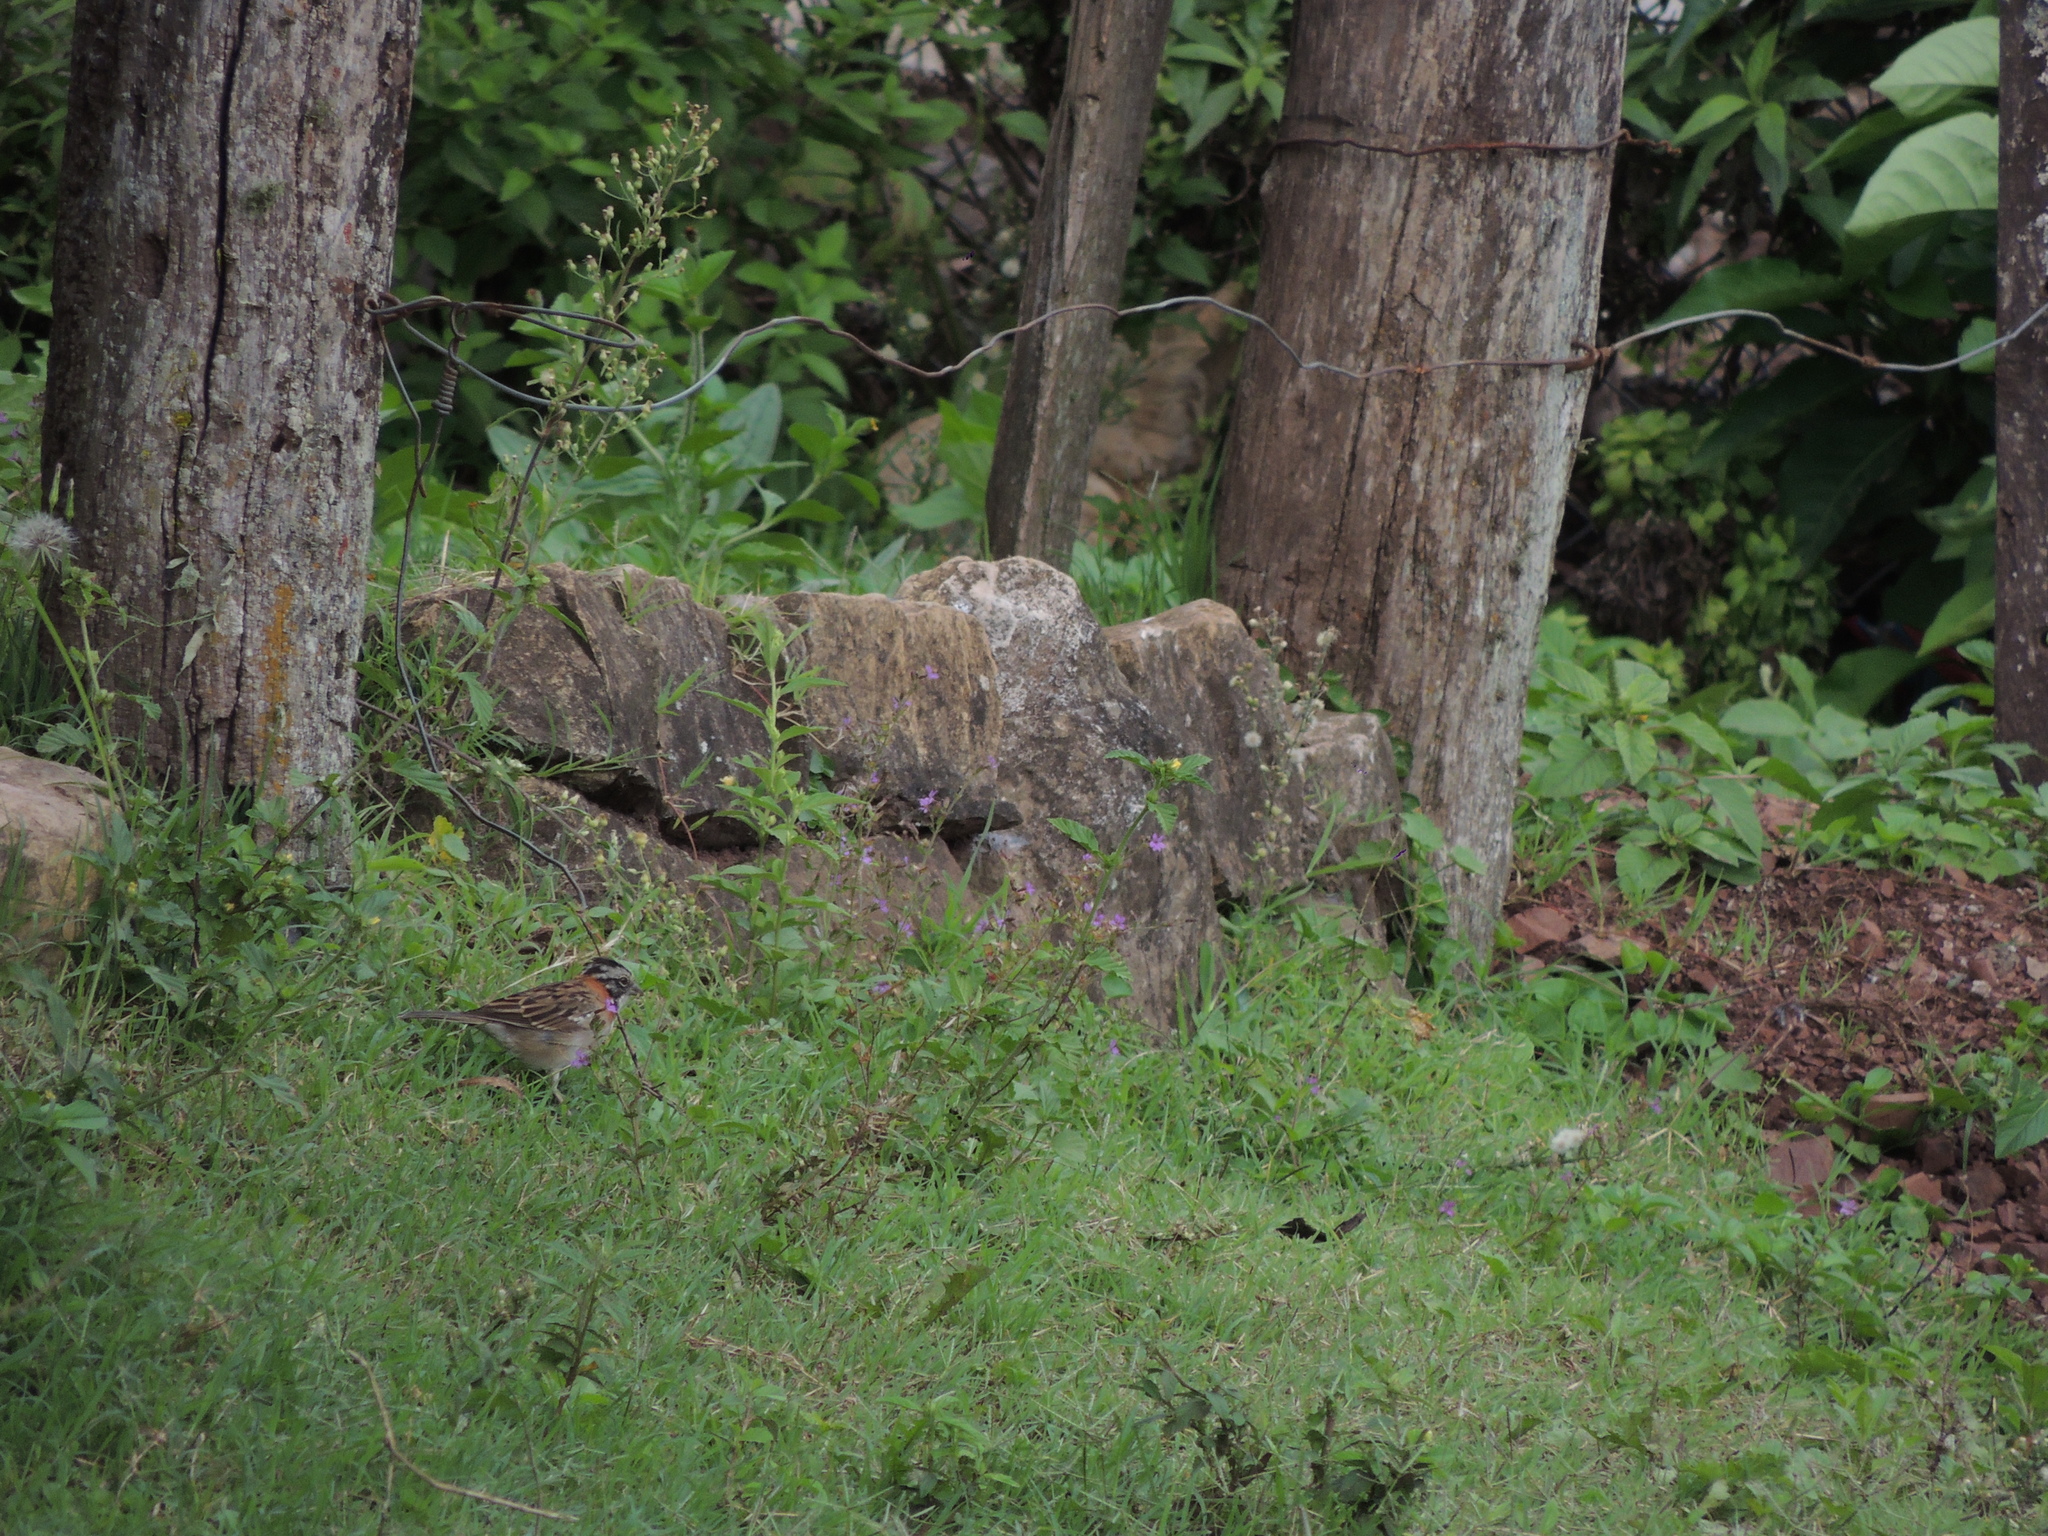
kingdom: Animalia
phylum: Chordata
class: Aves
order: Passeriformes
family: Passerellidae
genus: Zonotrichia
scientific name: Zonotrichia capensis
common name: Rufous-collared sparrow
